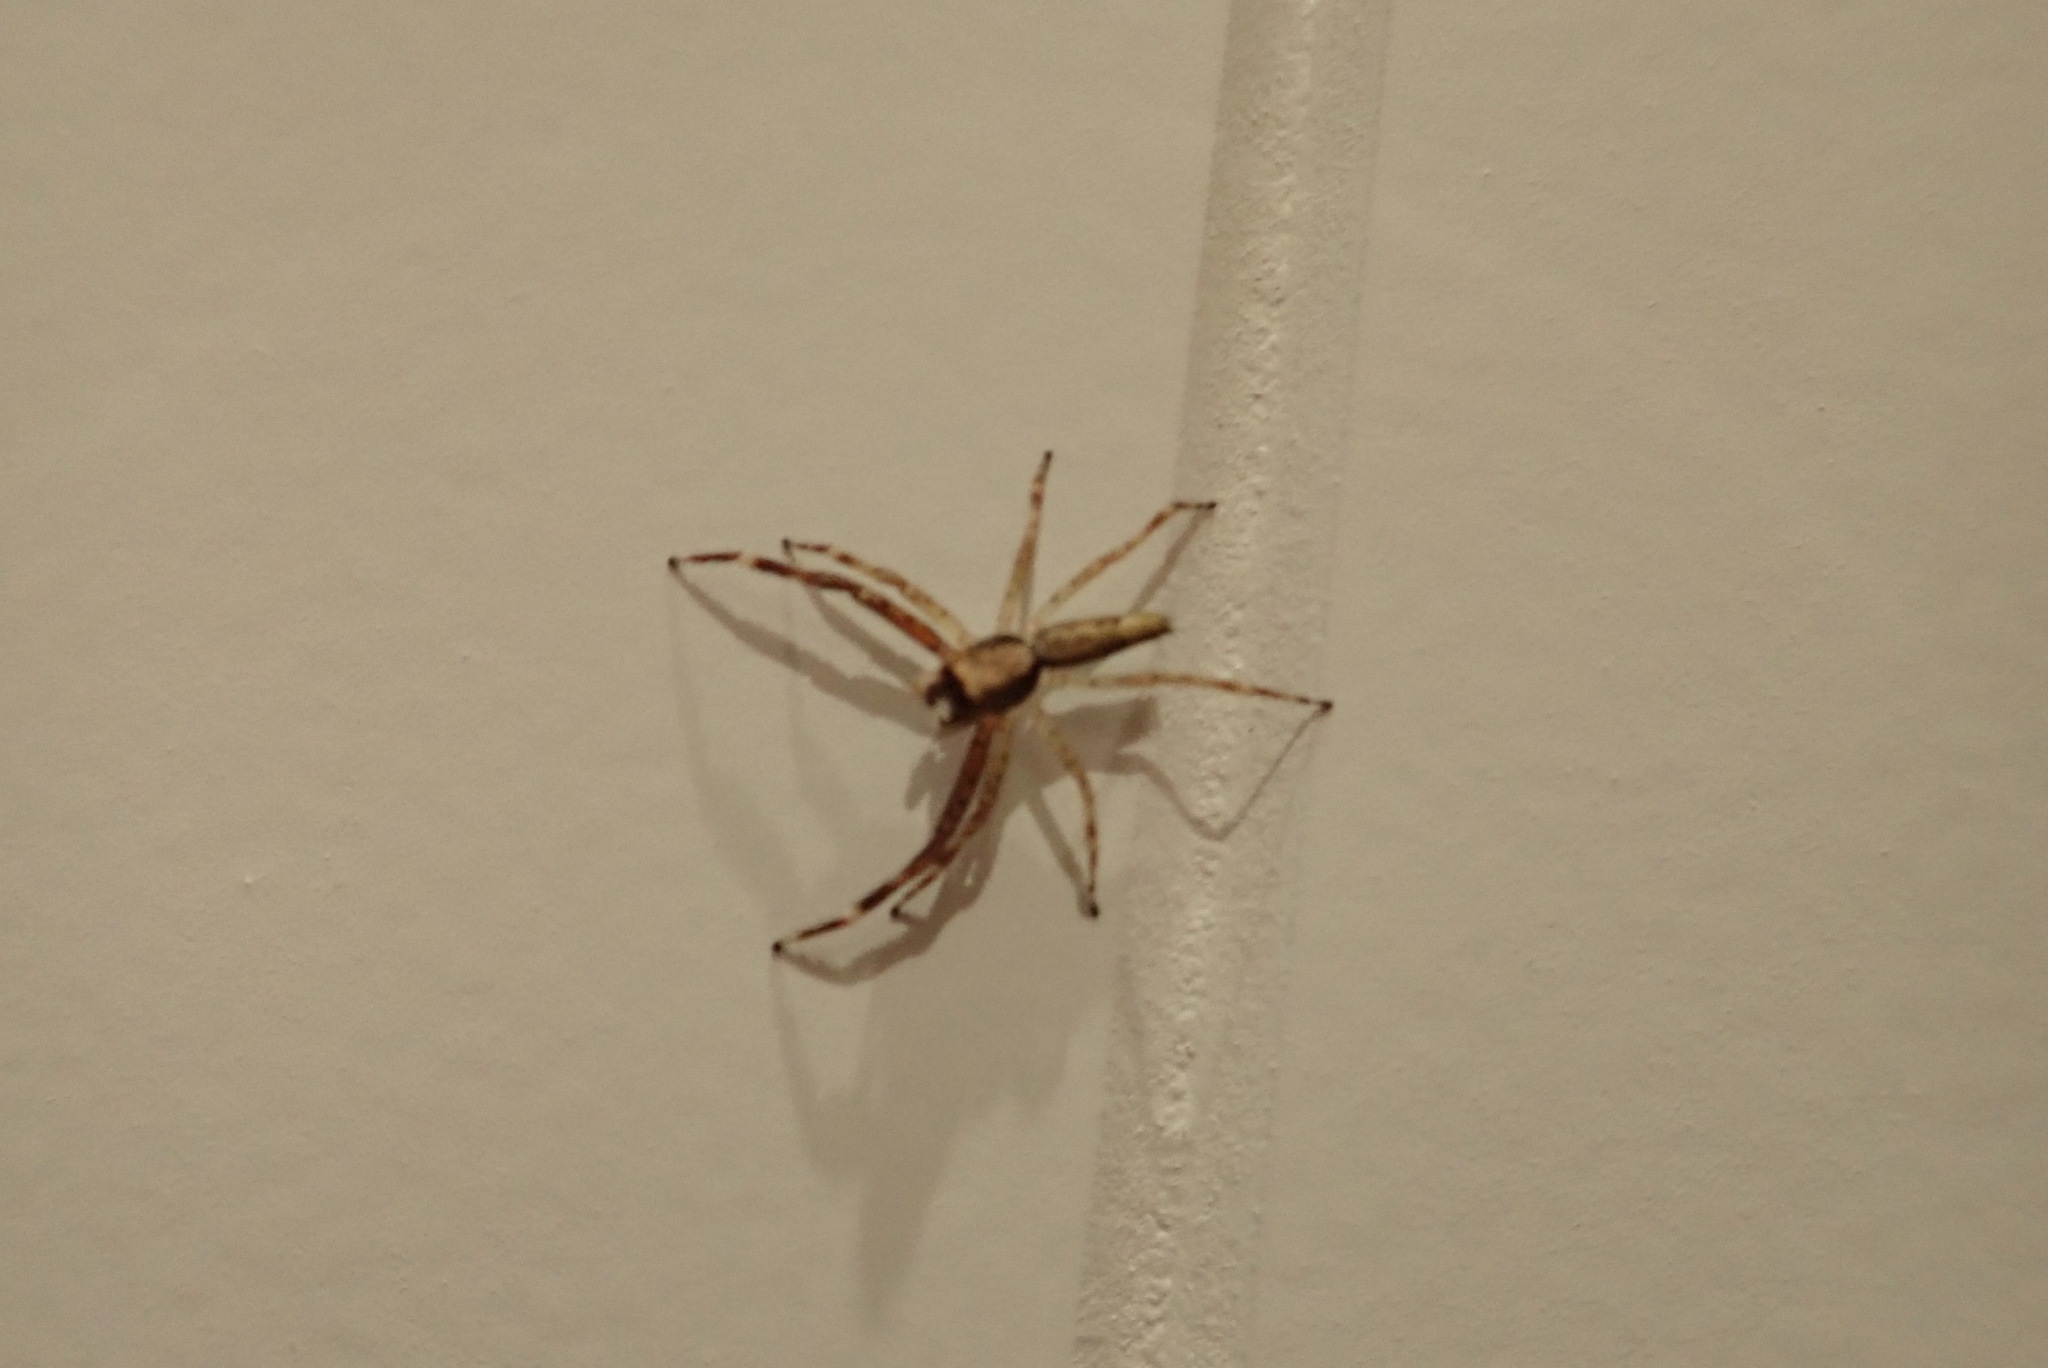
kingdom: Animalia
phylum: Arthropoda
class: Arachnida
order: Araneae
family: Salticidae
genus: Helpis
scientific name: Helpis minitabunda
